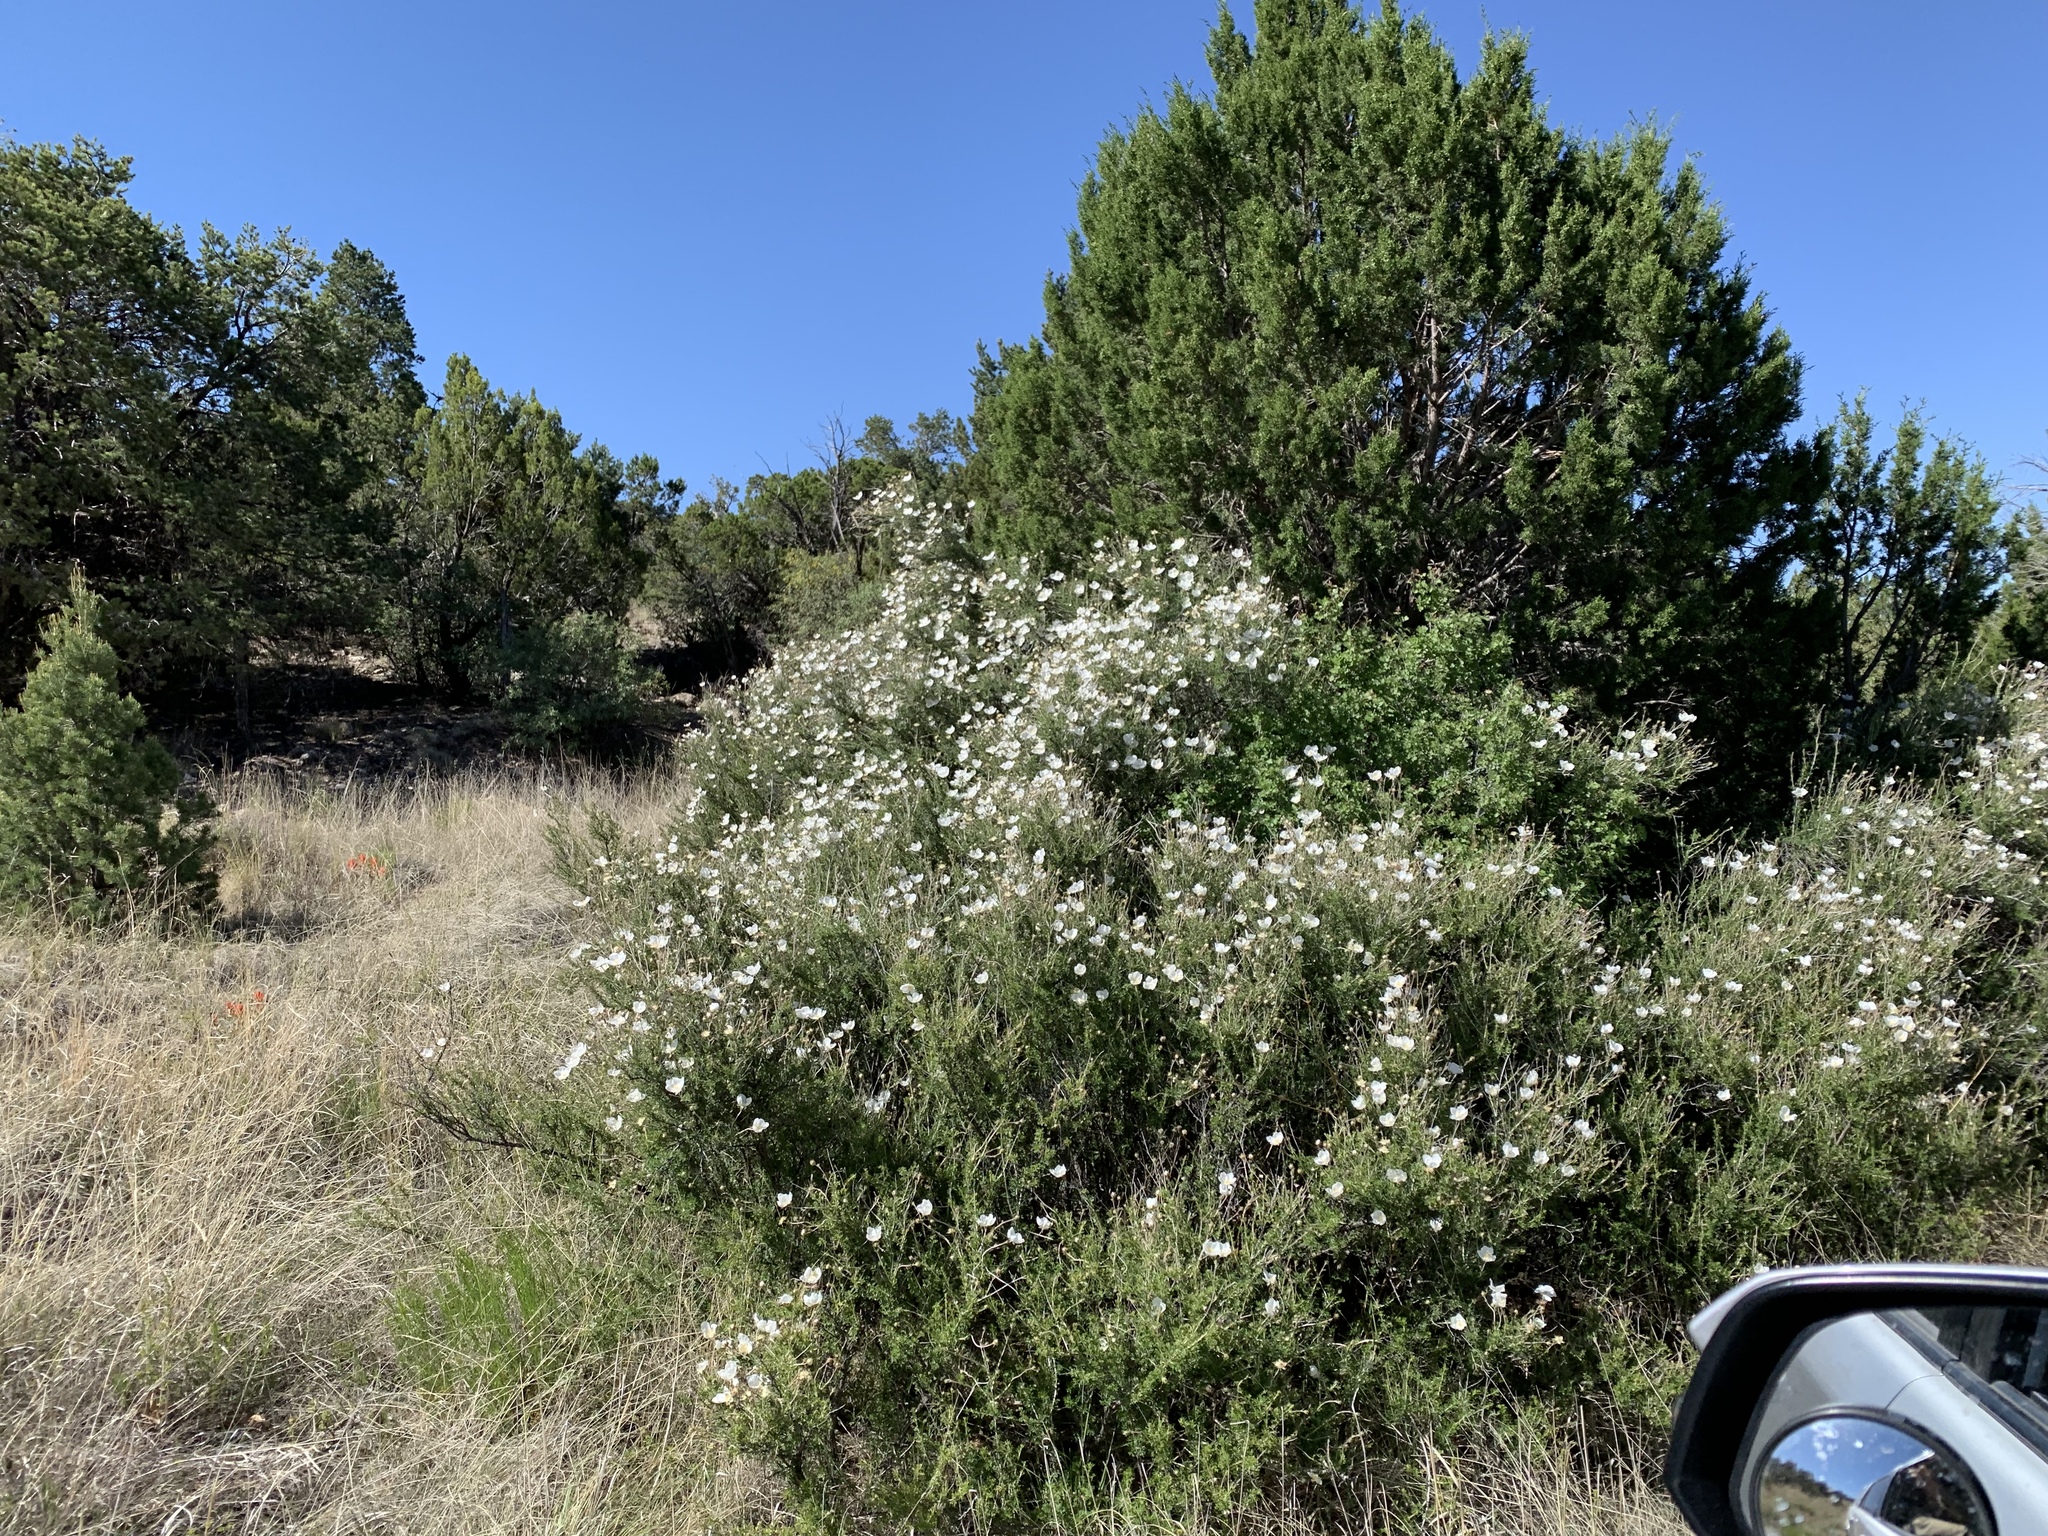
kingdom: Plantae
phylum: Tracheophyta
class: Magnoliopsida
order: Rosales
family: Rosaceae
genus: Fallugia
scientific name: Fallugia paradoxa
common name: Apache-plume
